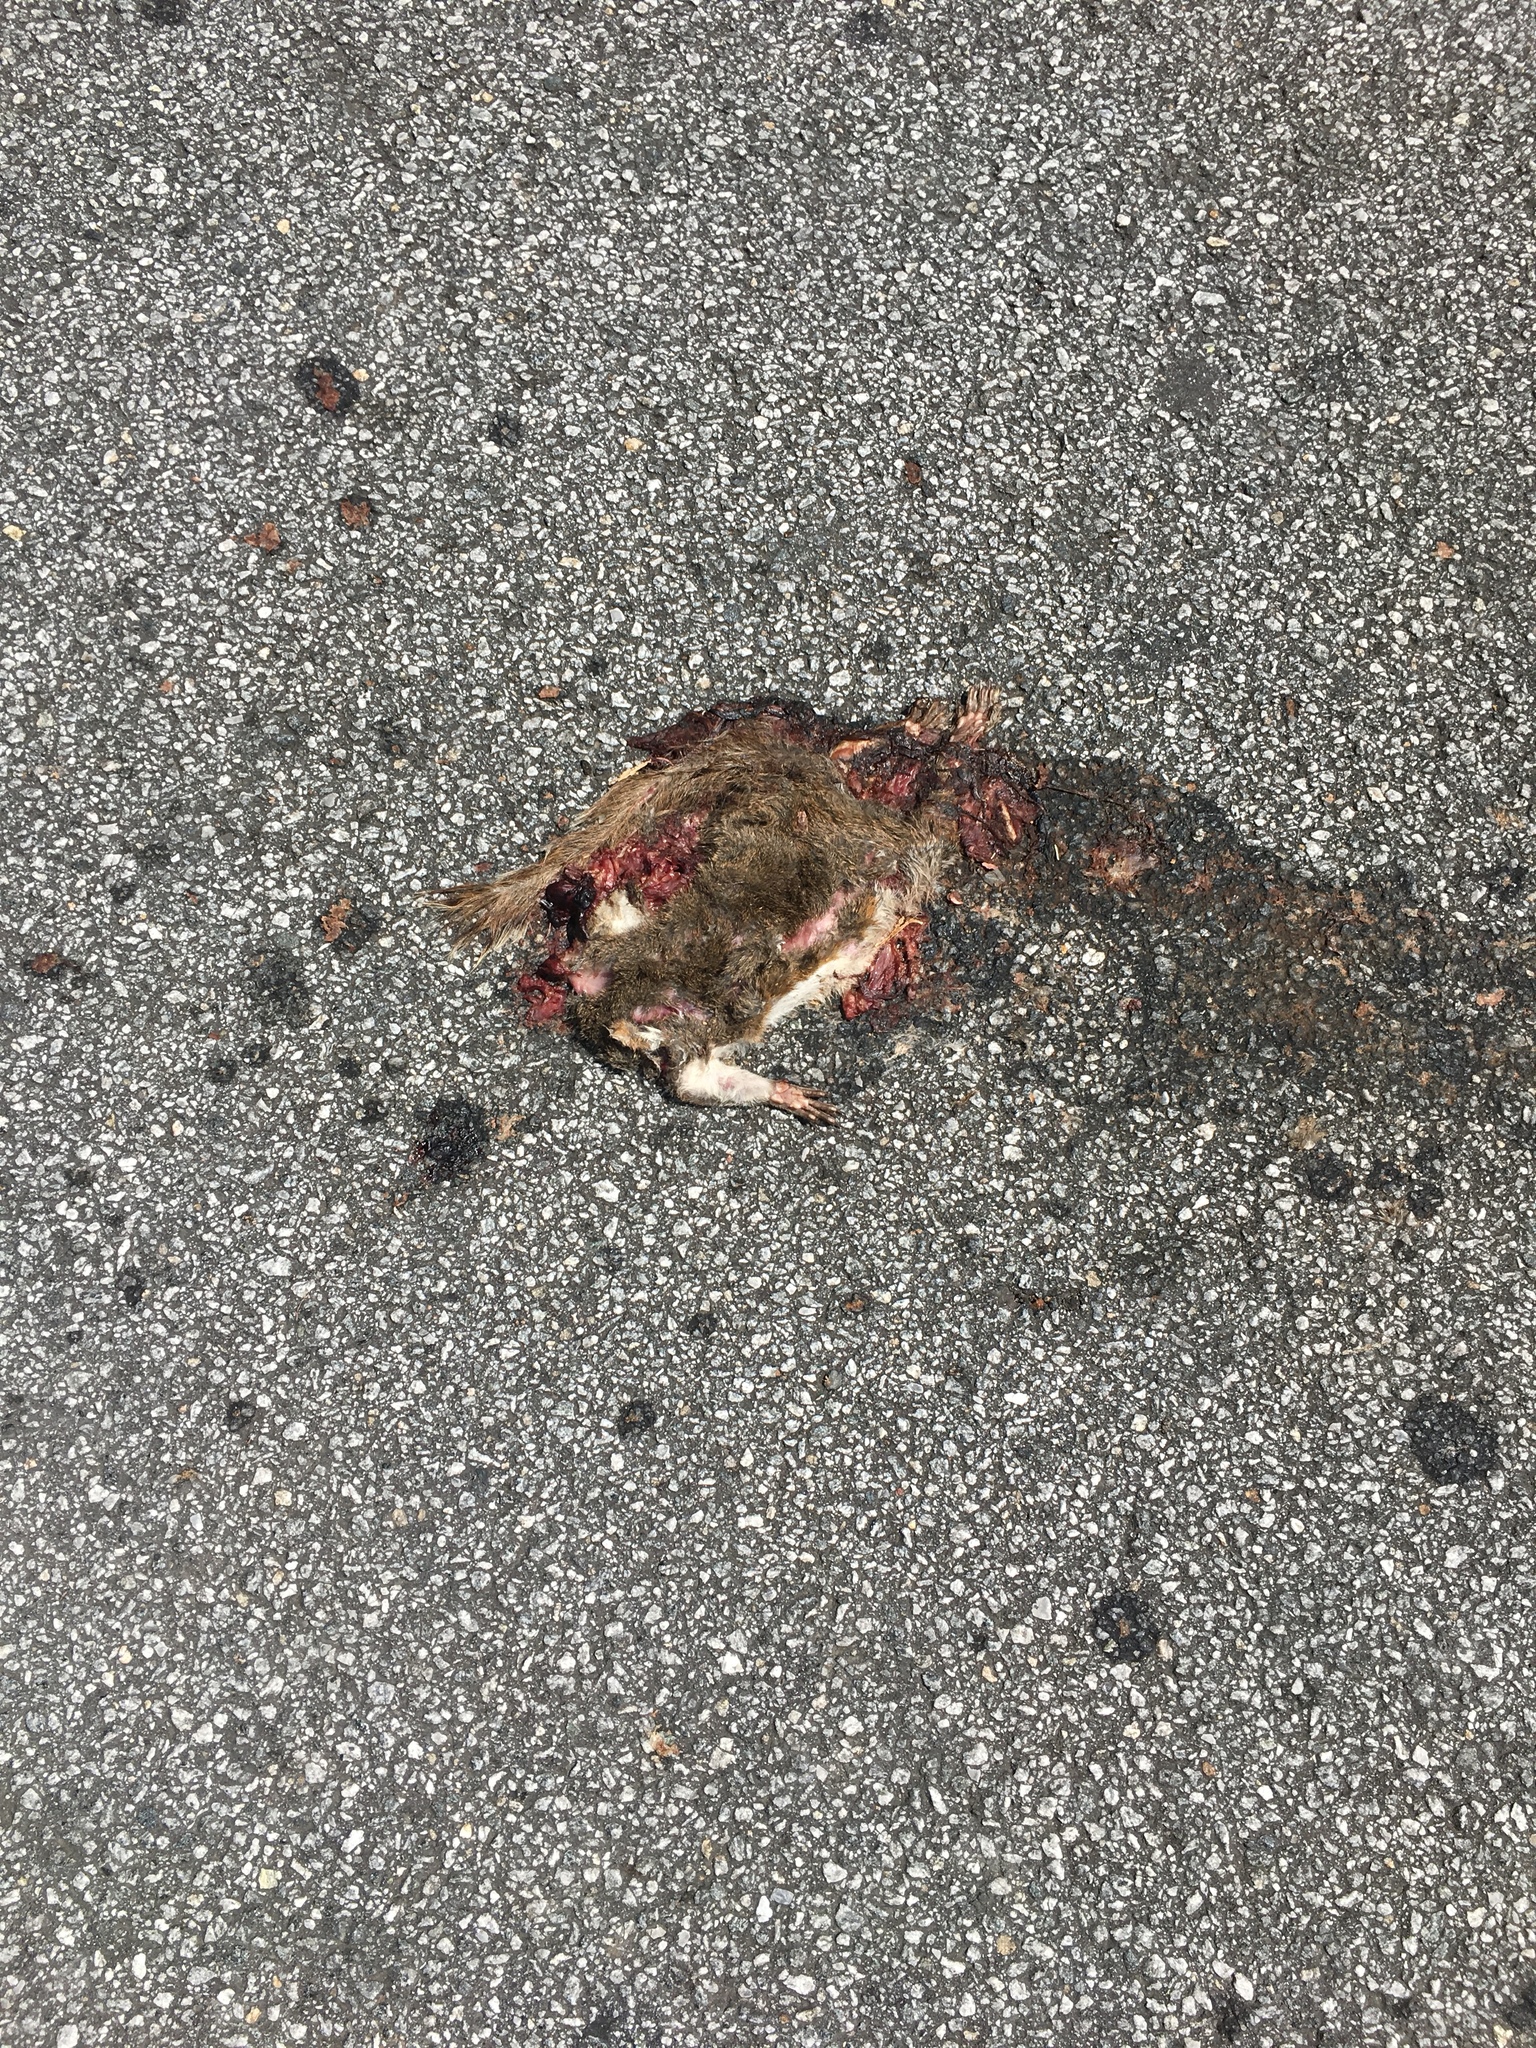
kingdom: Animalia
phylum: Chordata
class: Mammalia
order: Rodentia
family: Sciuridae
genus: Sciurus
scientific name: Sciurus carolinensis
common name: Eastern gray squirrel
